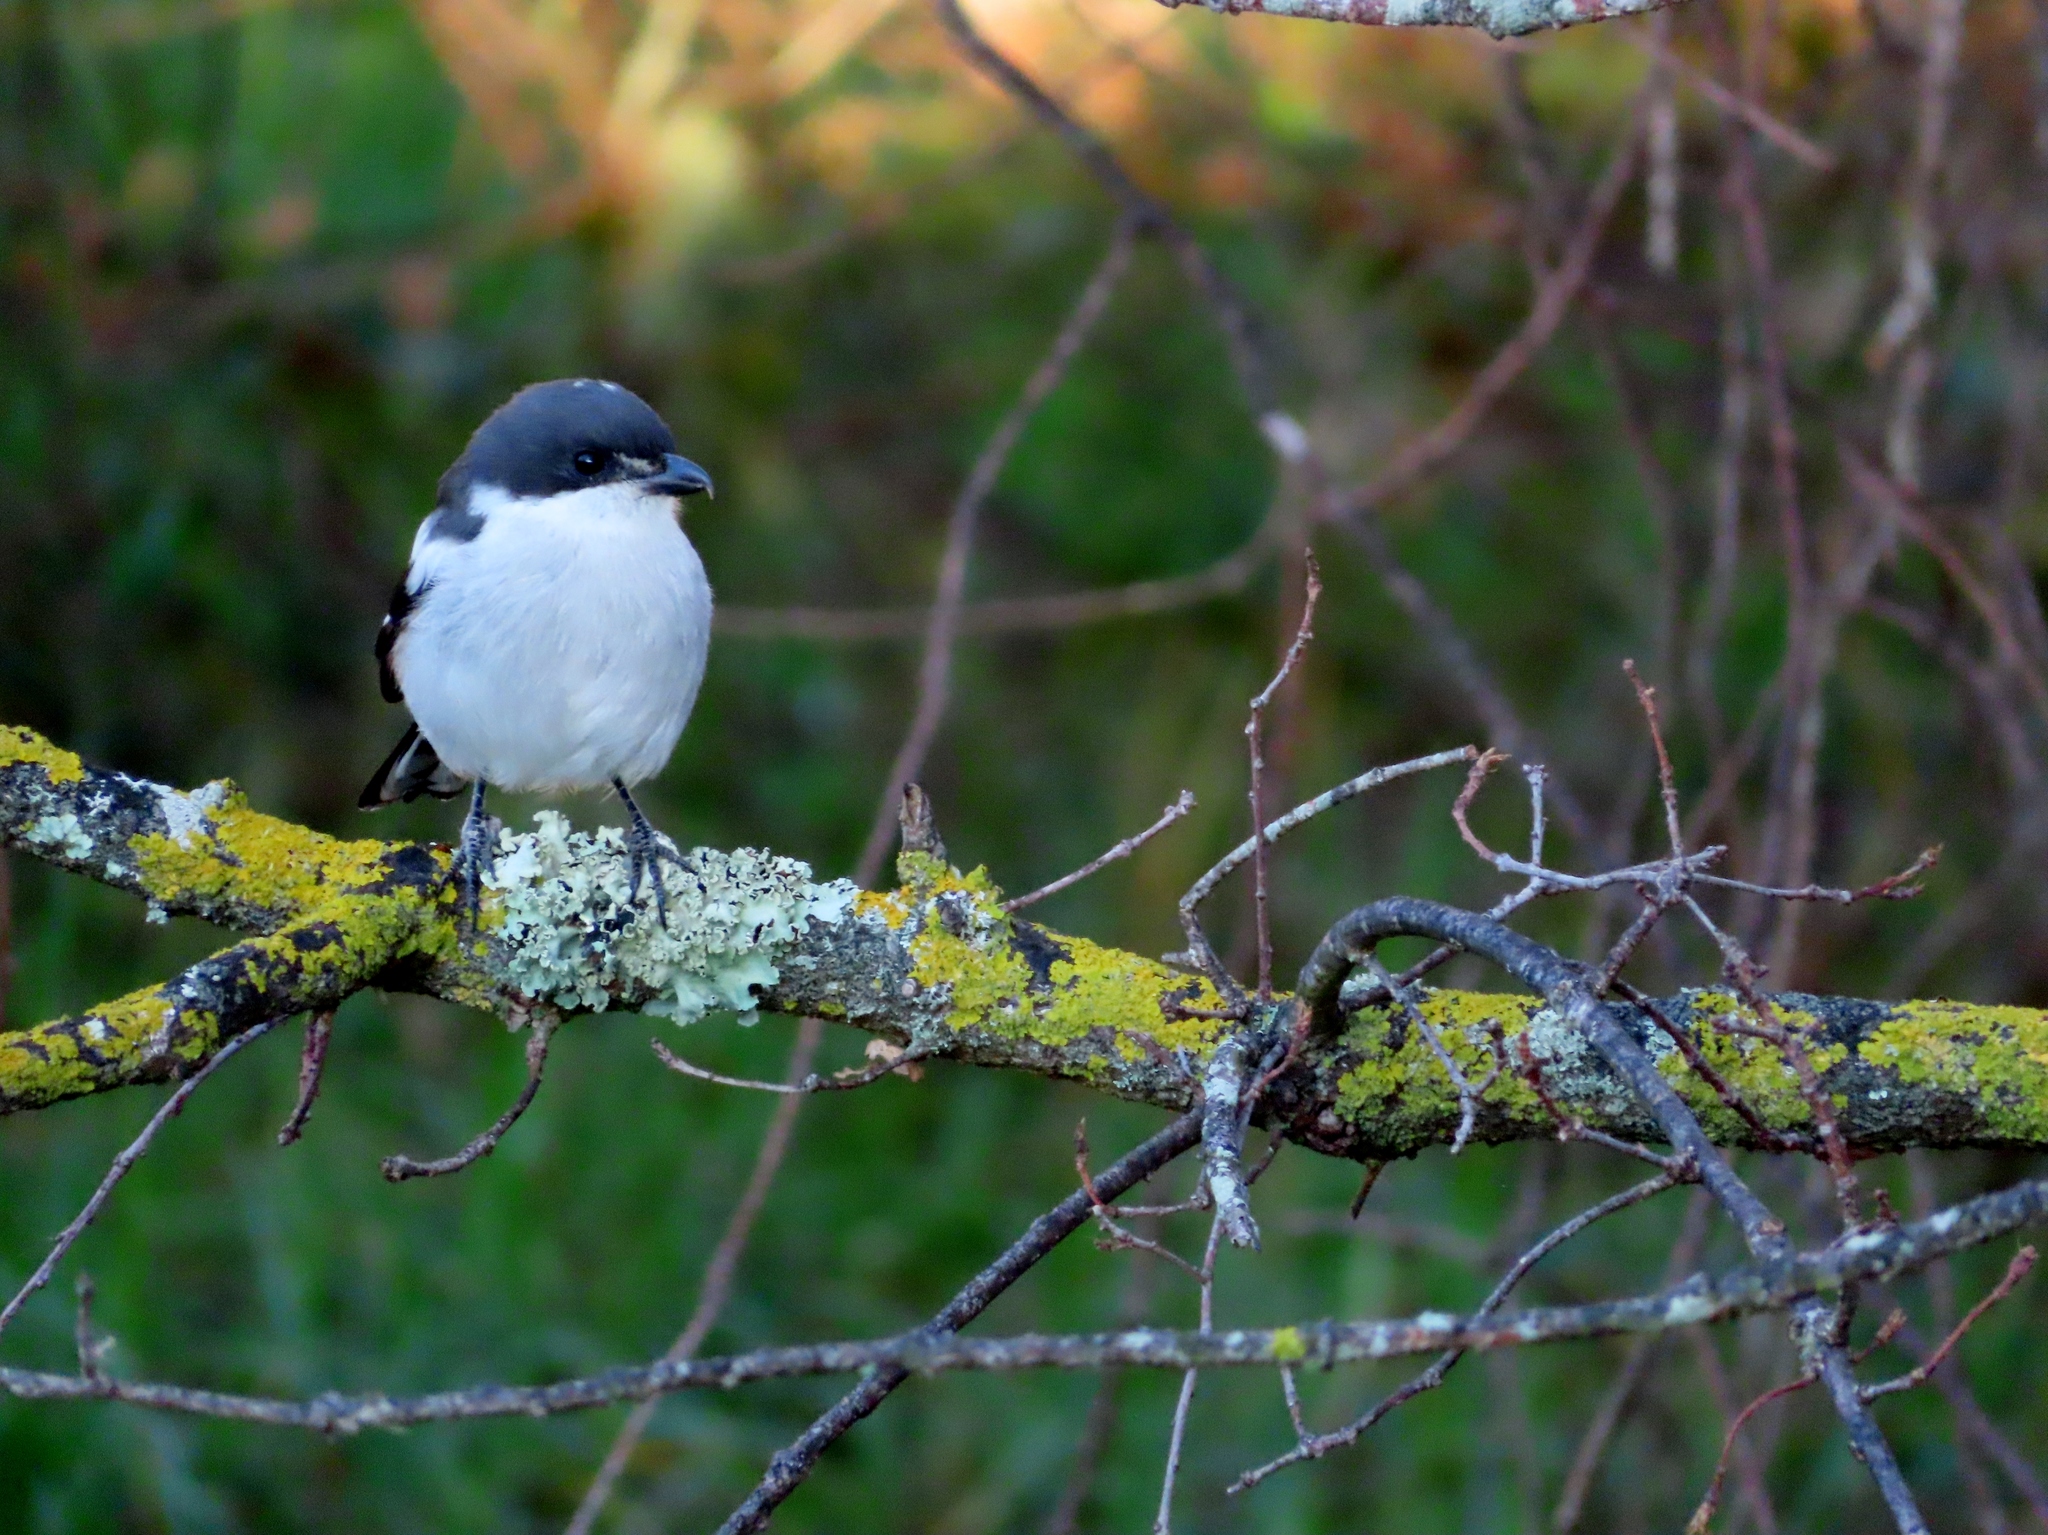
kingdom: Animalia
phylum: Chordata
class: Aves
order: Passeriformes
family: Laniidae
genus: Lanius
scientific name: Lanius collaris
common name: Southern fiscal
